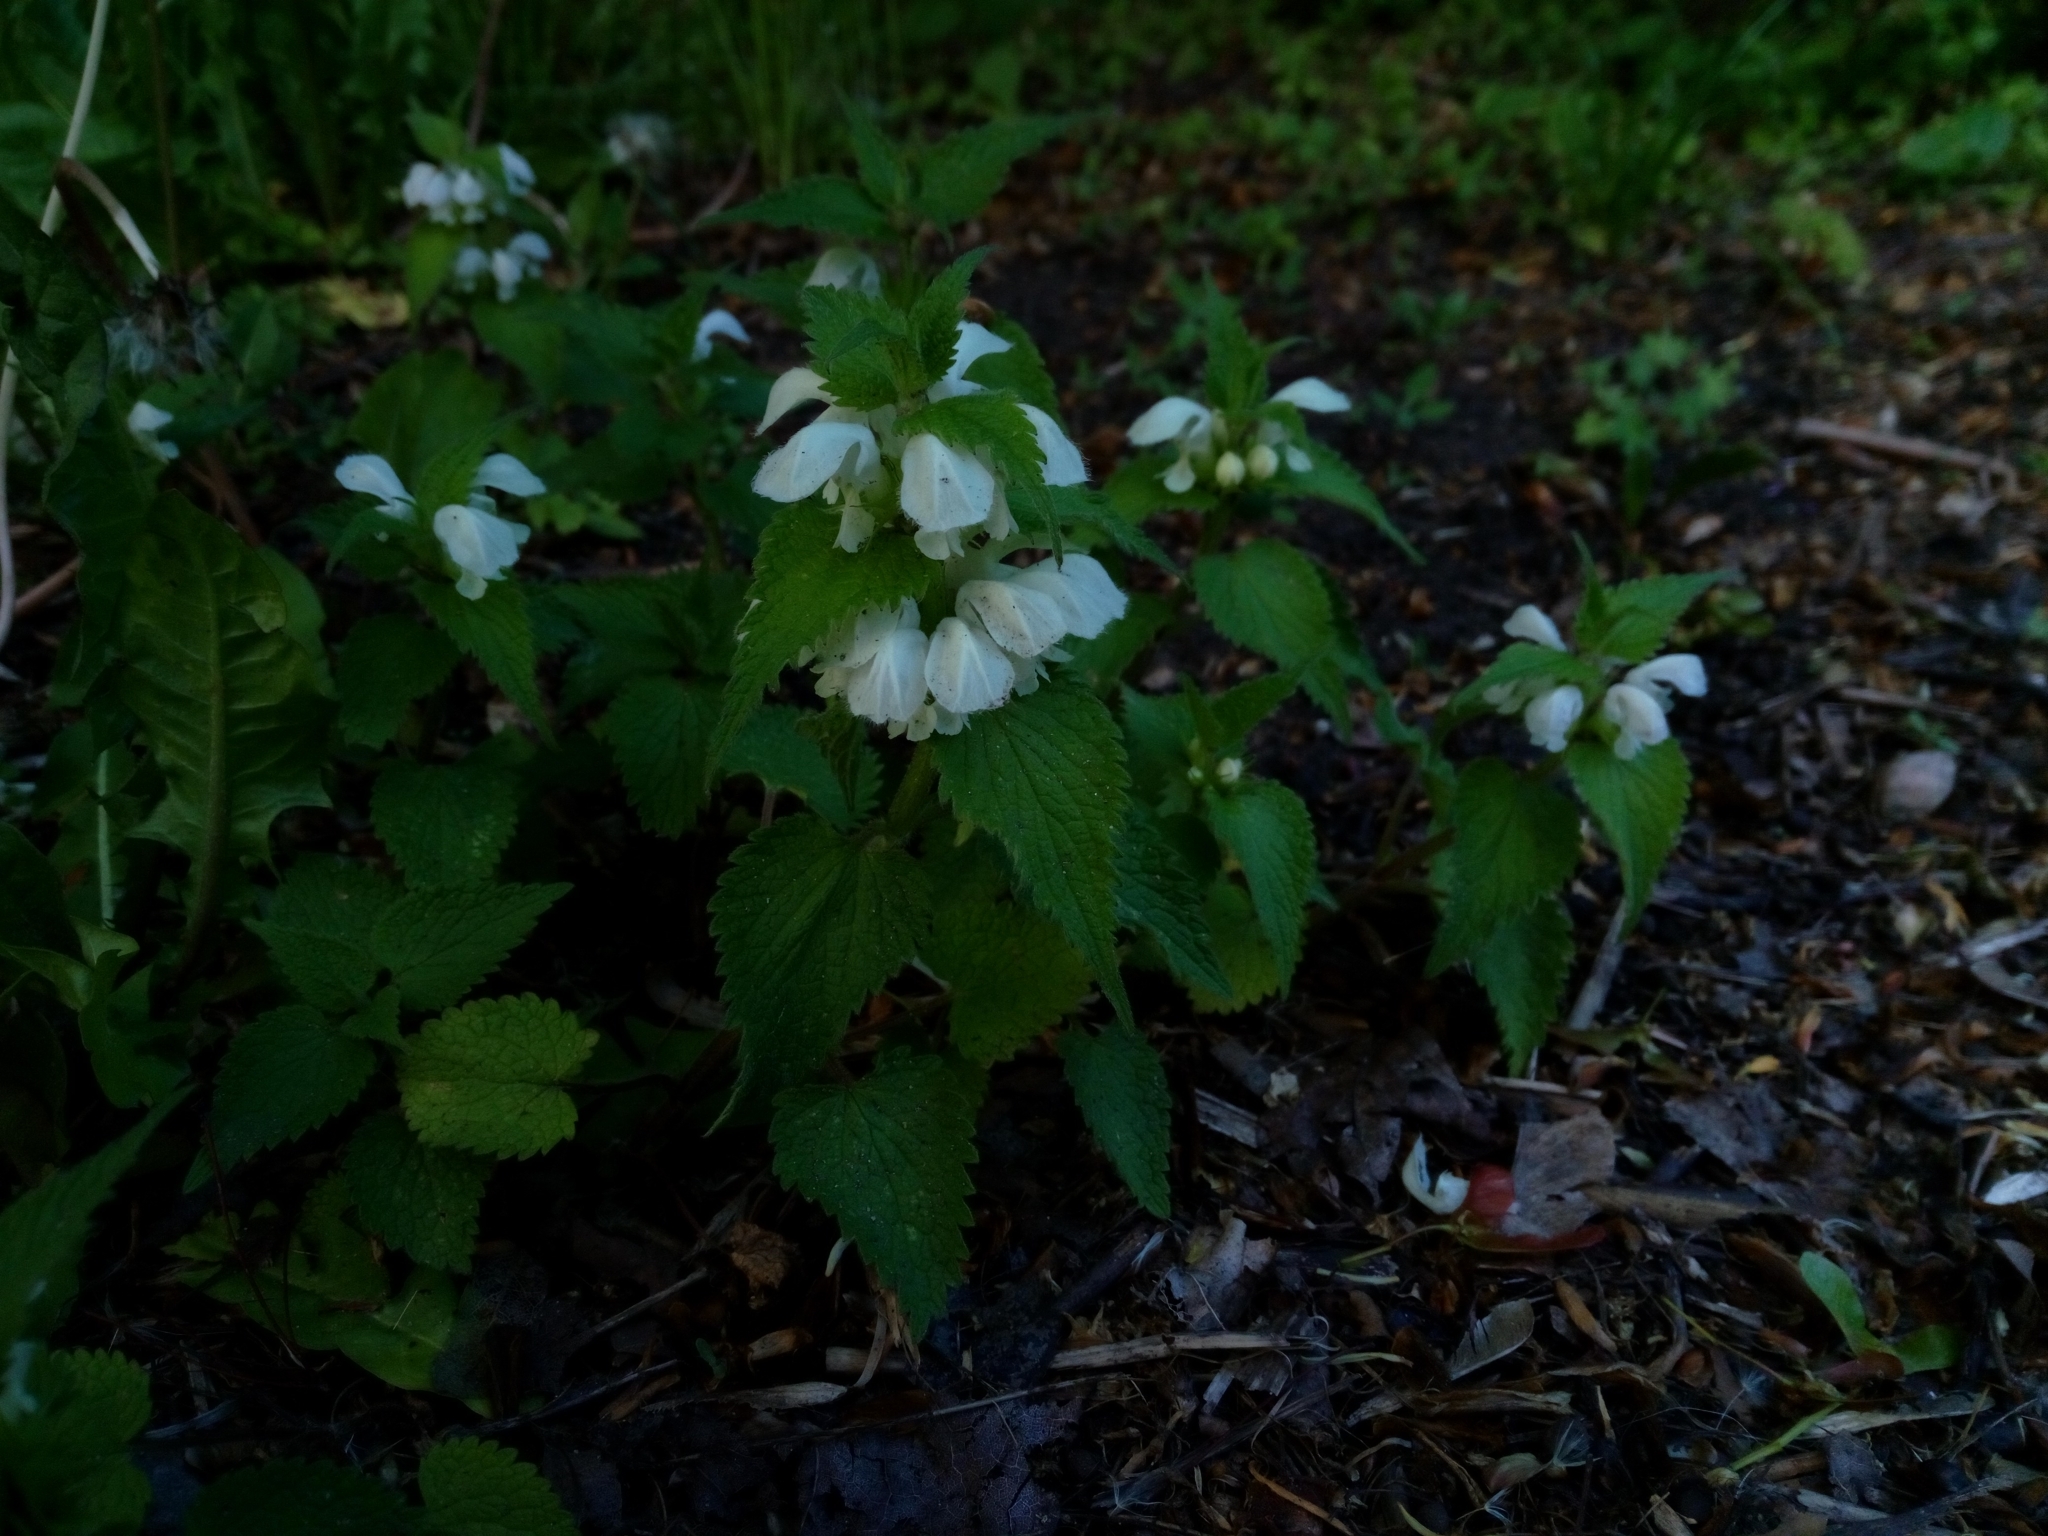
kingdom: Plantae
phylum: Tracheophyta
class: Magnoliopsida
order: Lamiales
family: Lamiaceae
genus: Lamium
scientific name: Lamium album
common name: White dead-nettle
